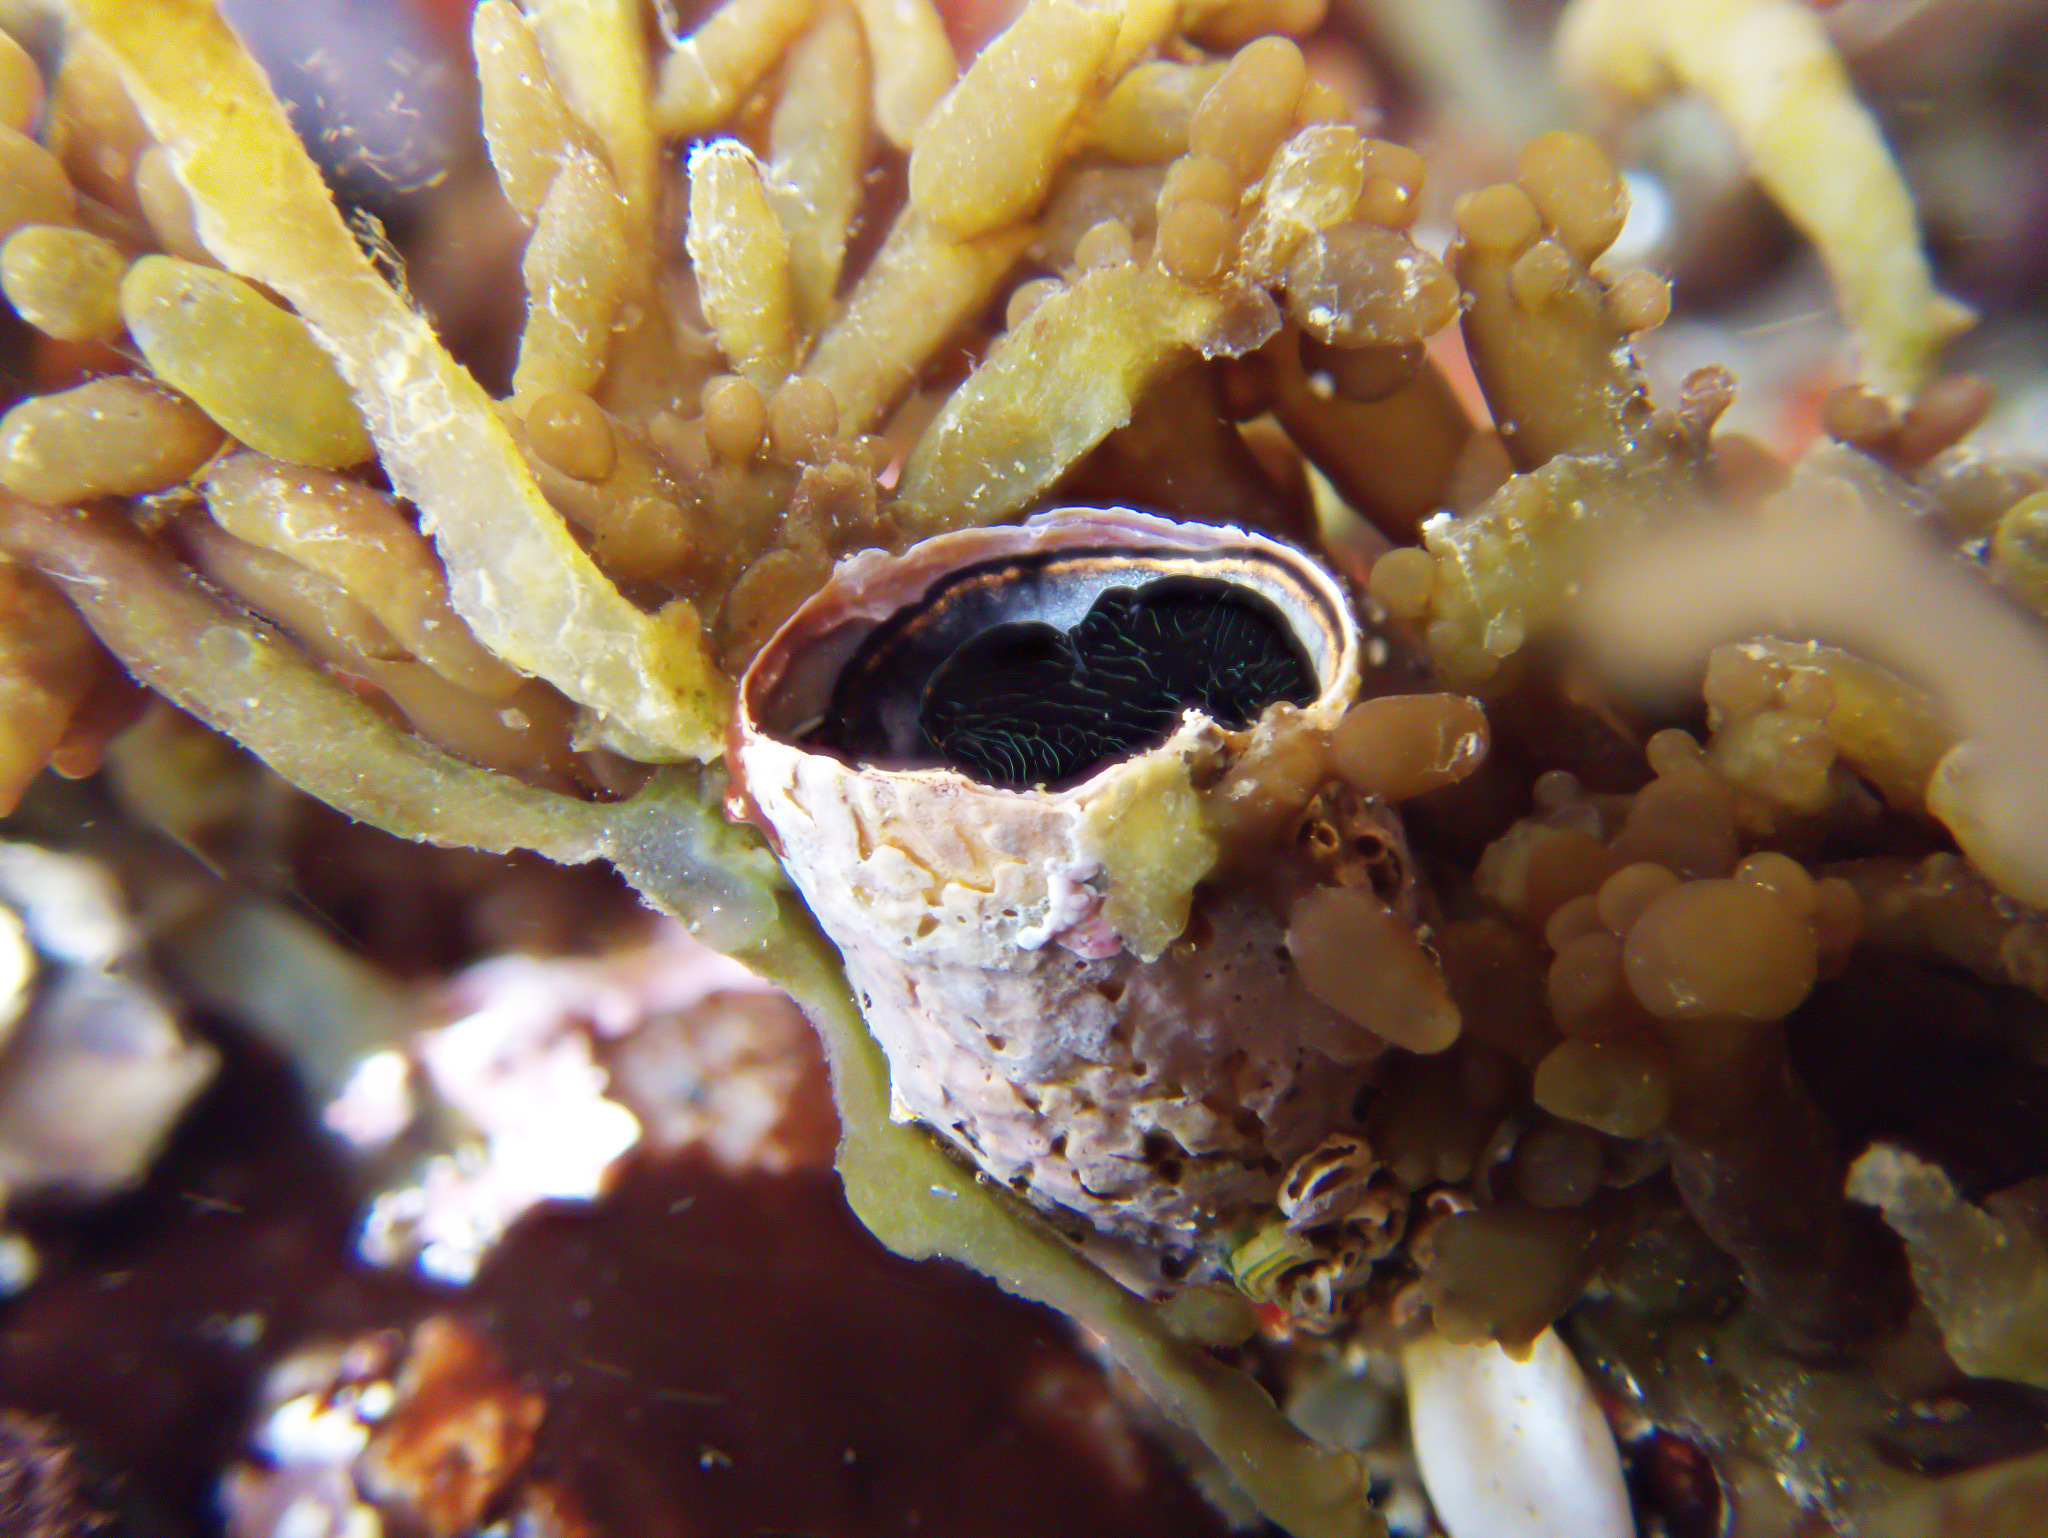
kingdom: Animalia
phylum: Mollusca
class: Gastropoda
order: Littorinimorpha
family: Vermetidae
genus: Thylacodes
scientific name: Thylacodes squamigerus
